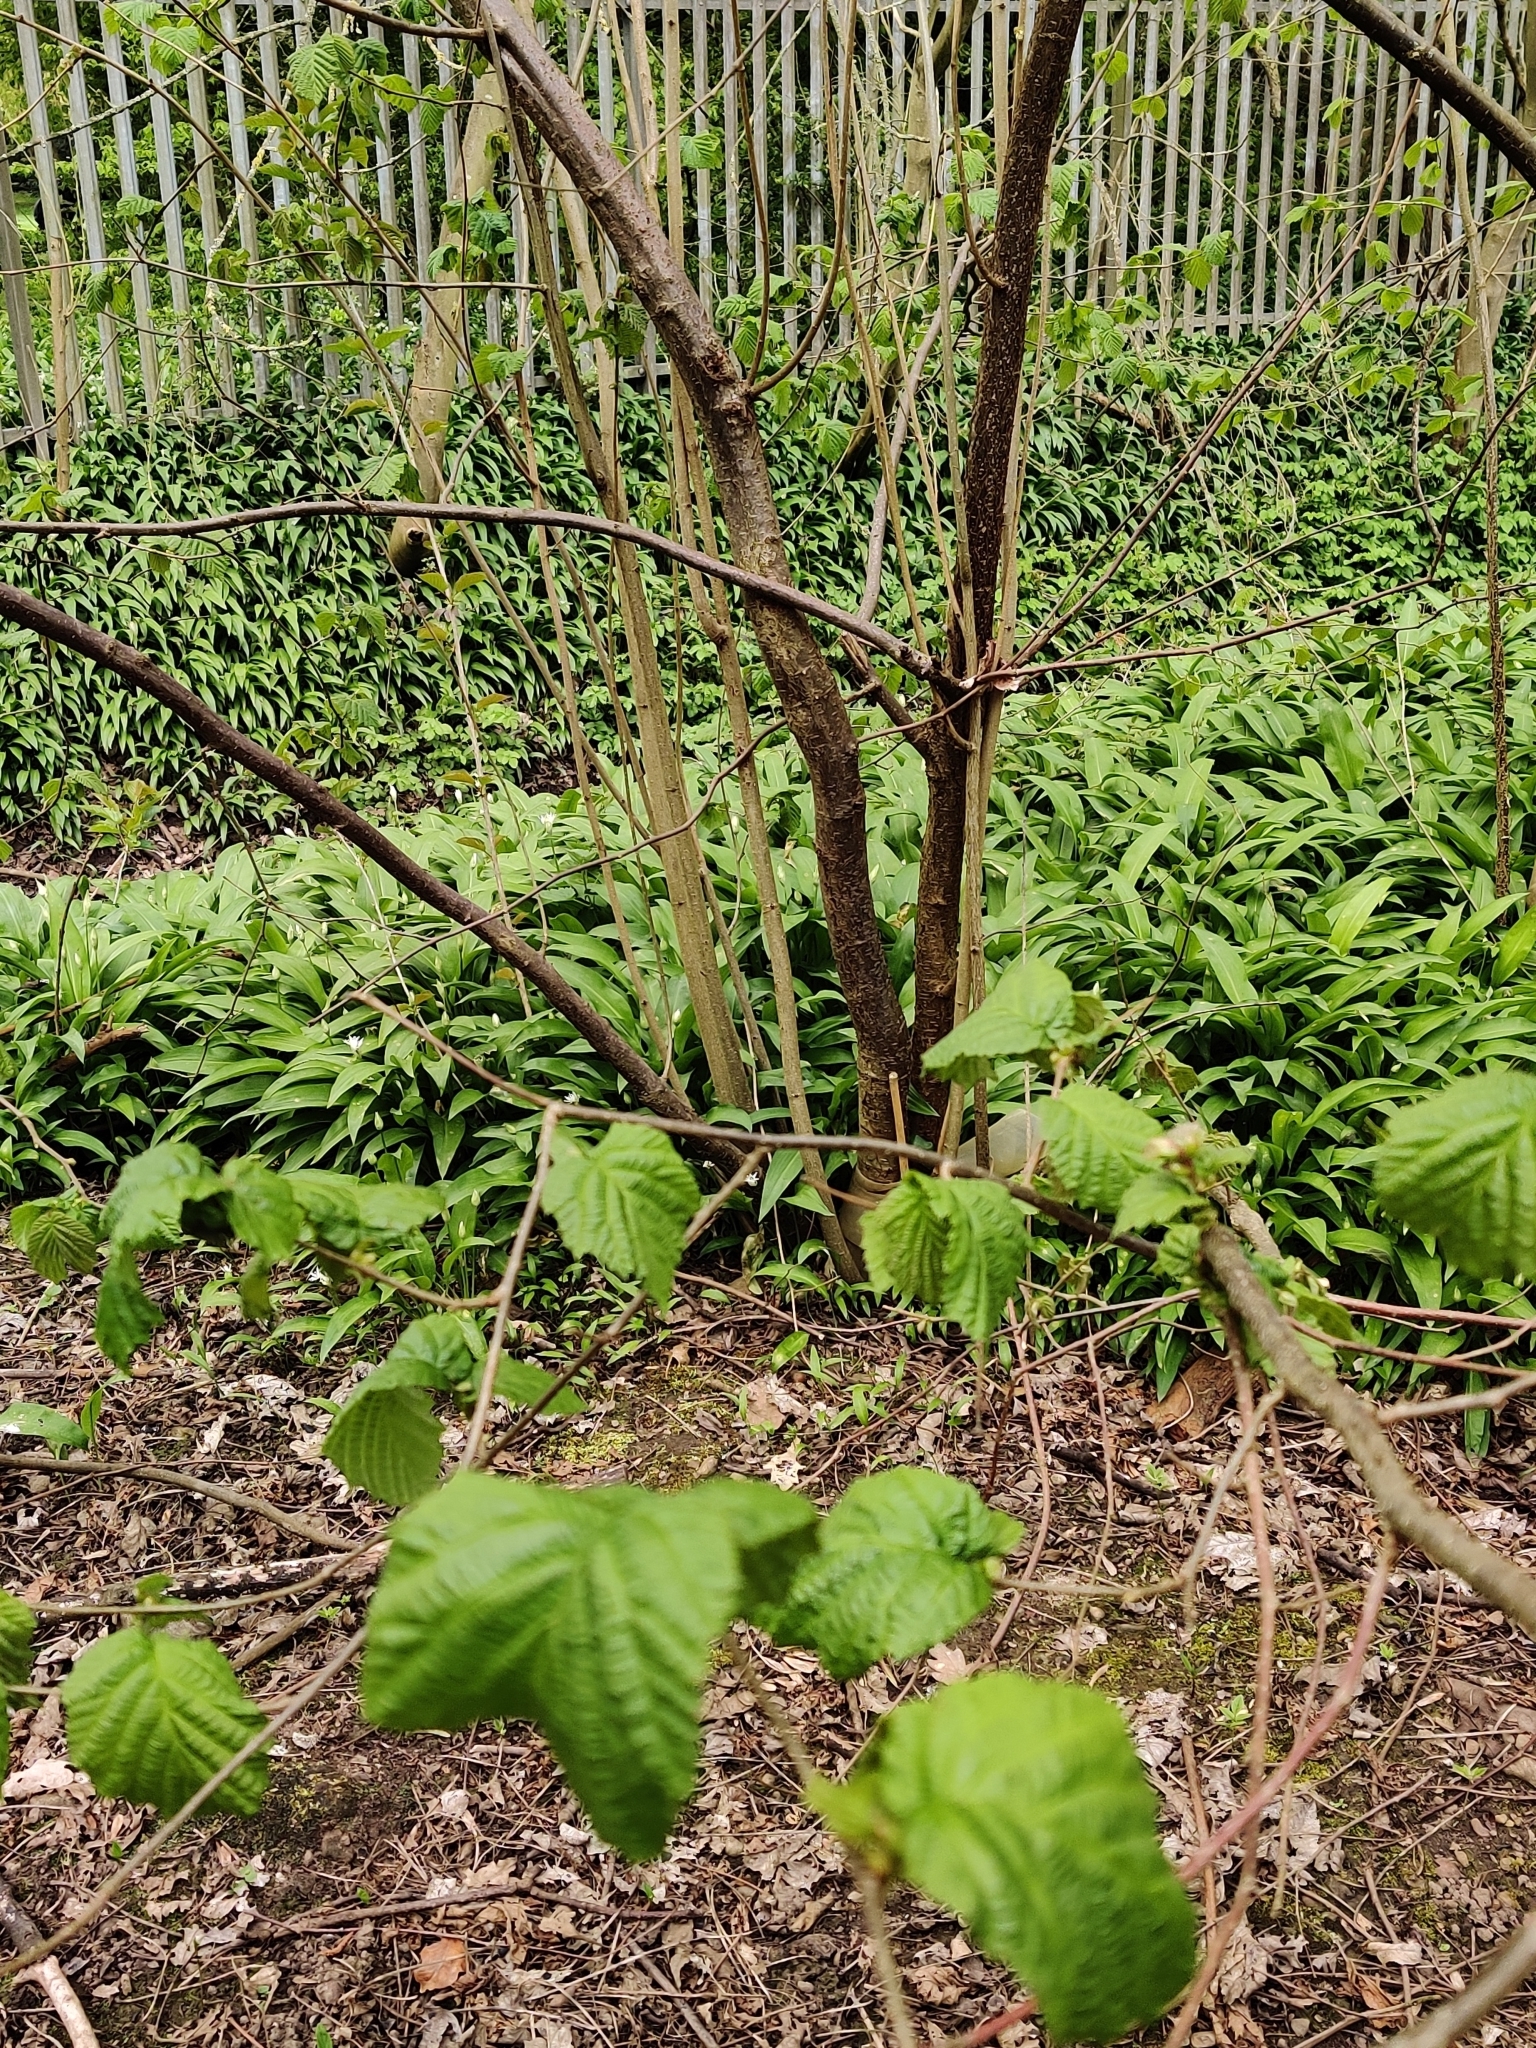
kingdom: Plantae
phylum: Tracheophyta
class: Magnoliopsida
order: Fagales
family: Betulaceae
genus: Corylus
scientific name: Corylus avellana
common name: European hazel
